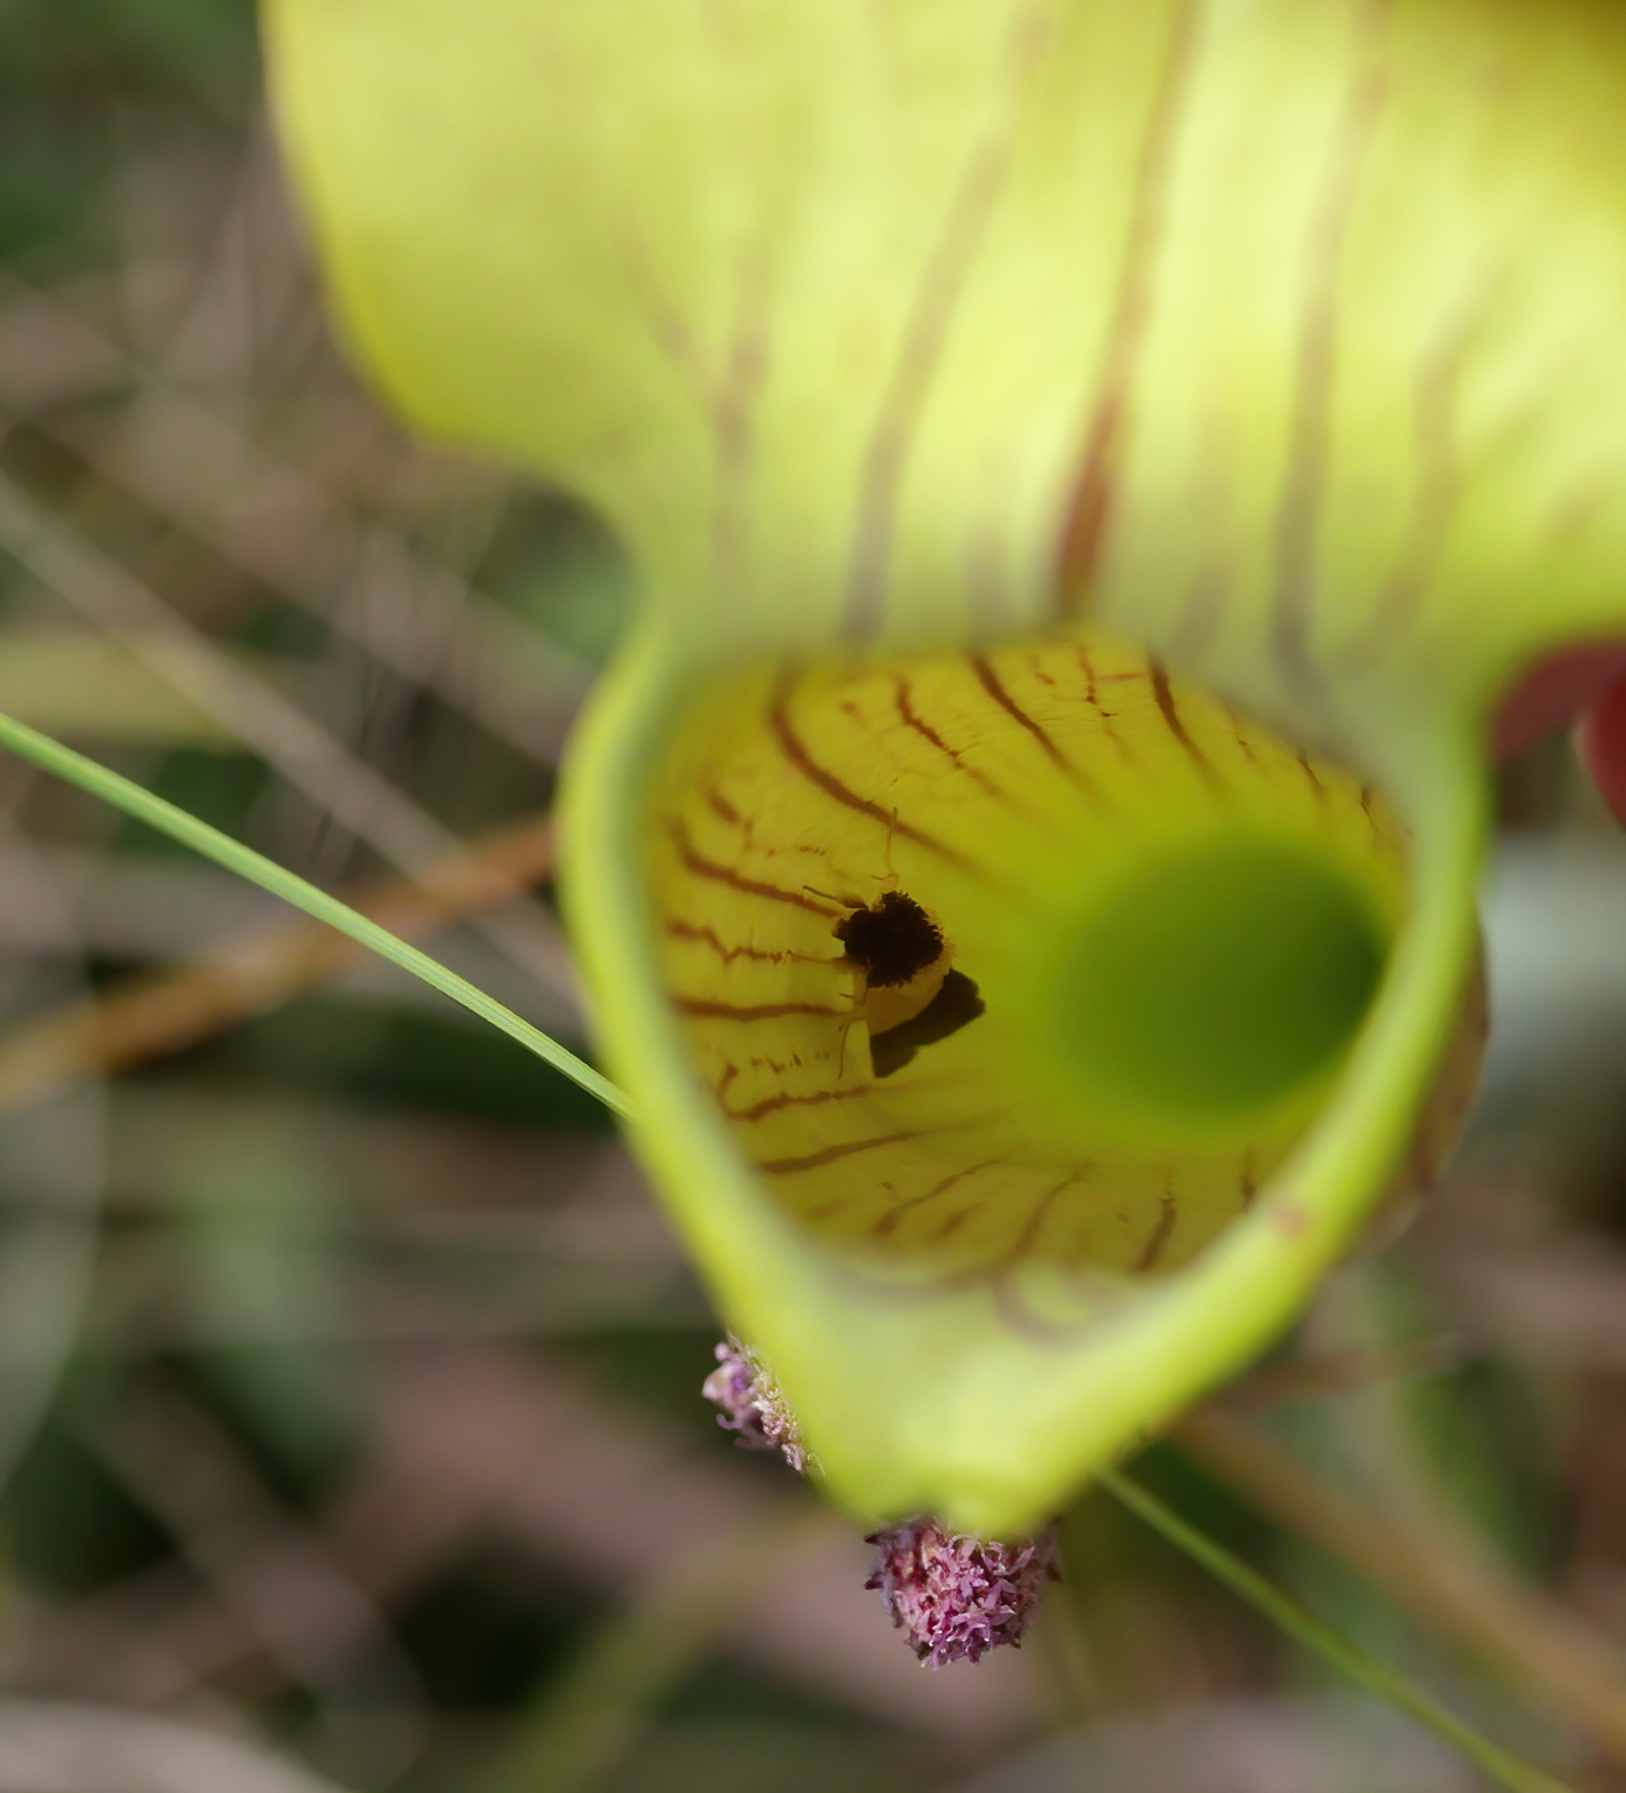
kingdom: Animalia
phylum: Arthropoda
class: Insecta
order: Lepidoptera
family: Noctuidae
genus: Exyra
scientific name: Exyra semicrocea
